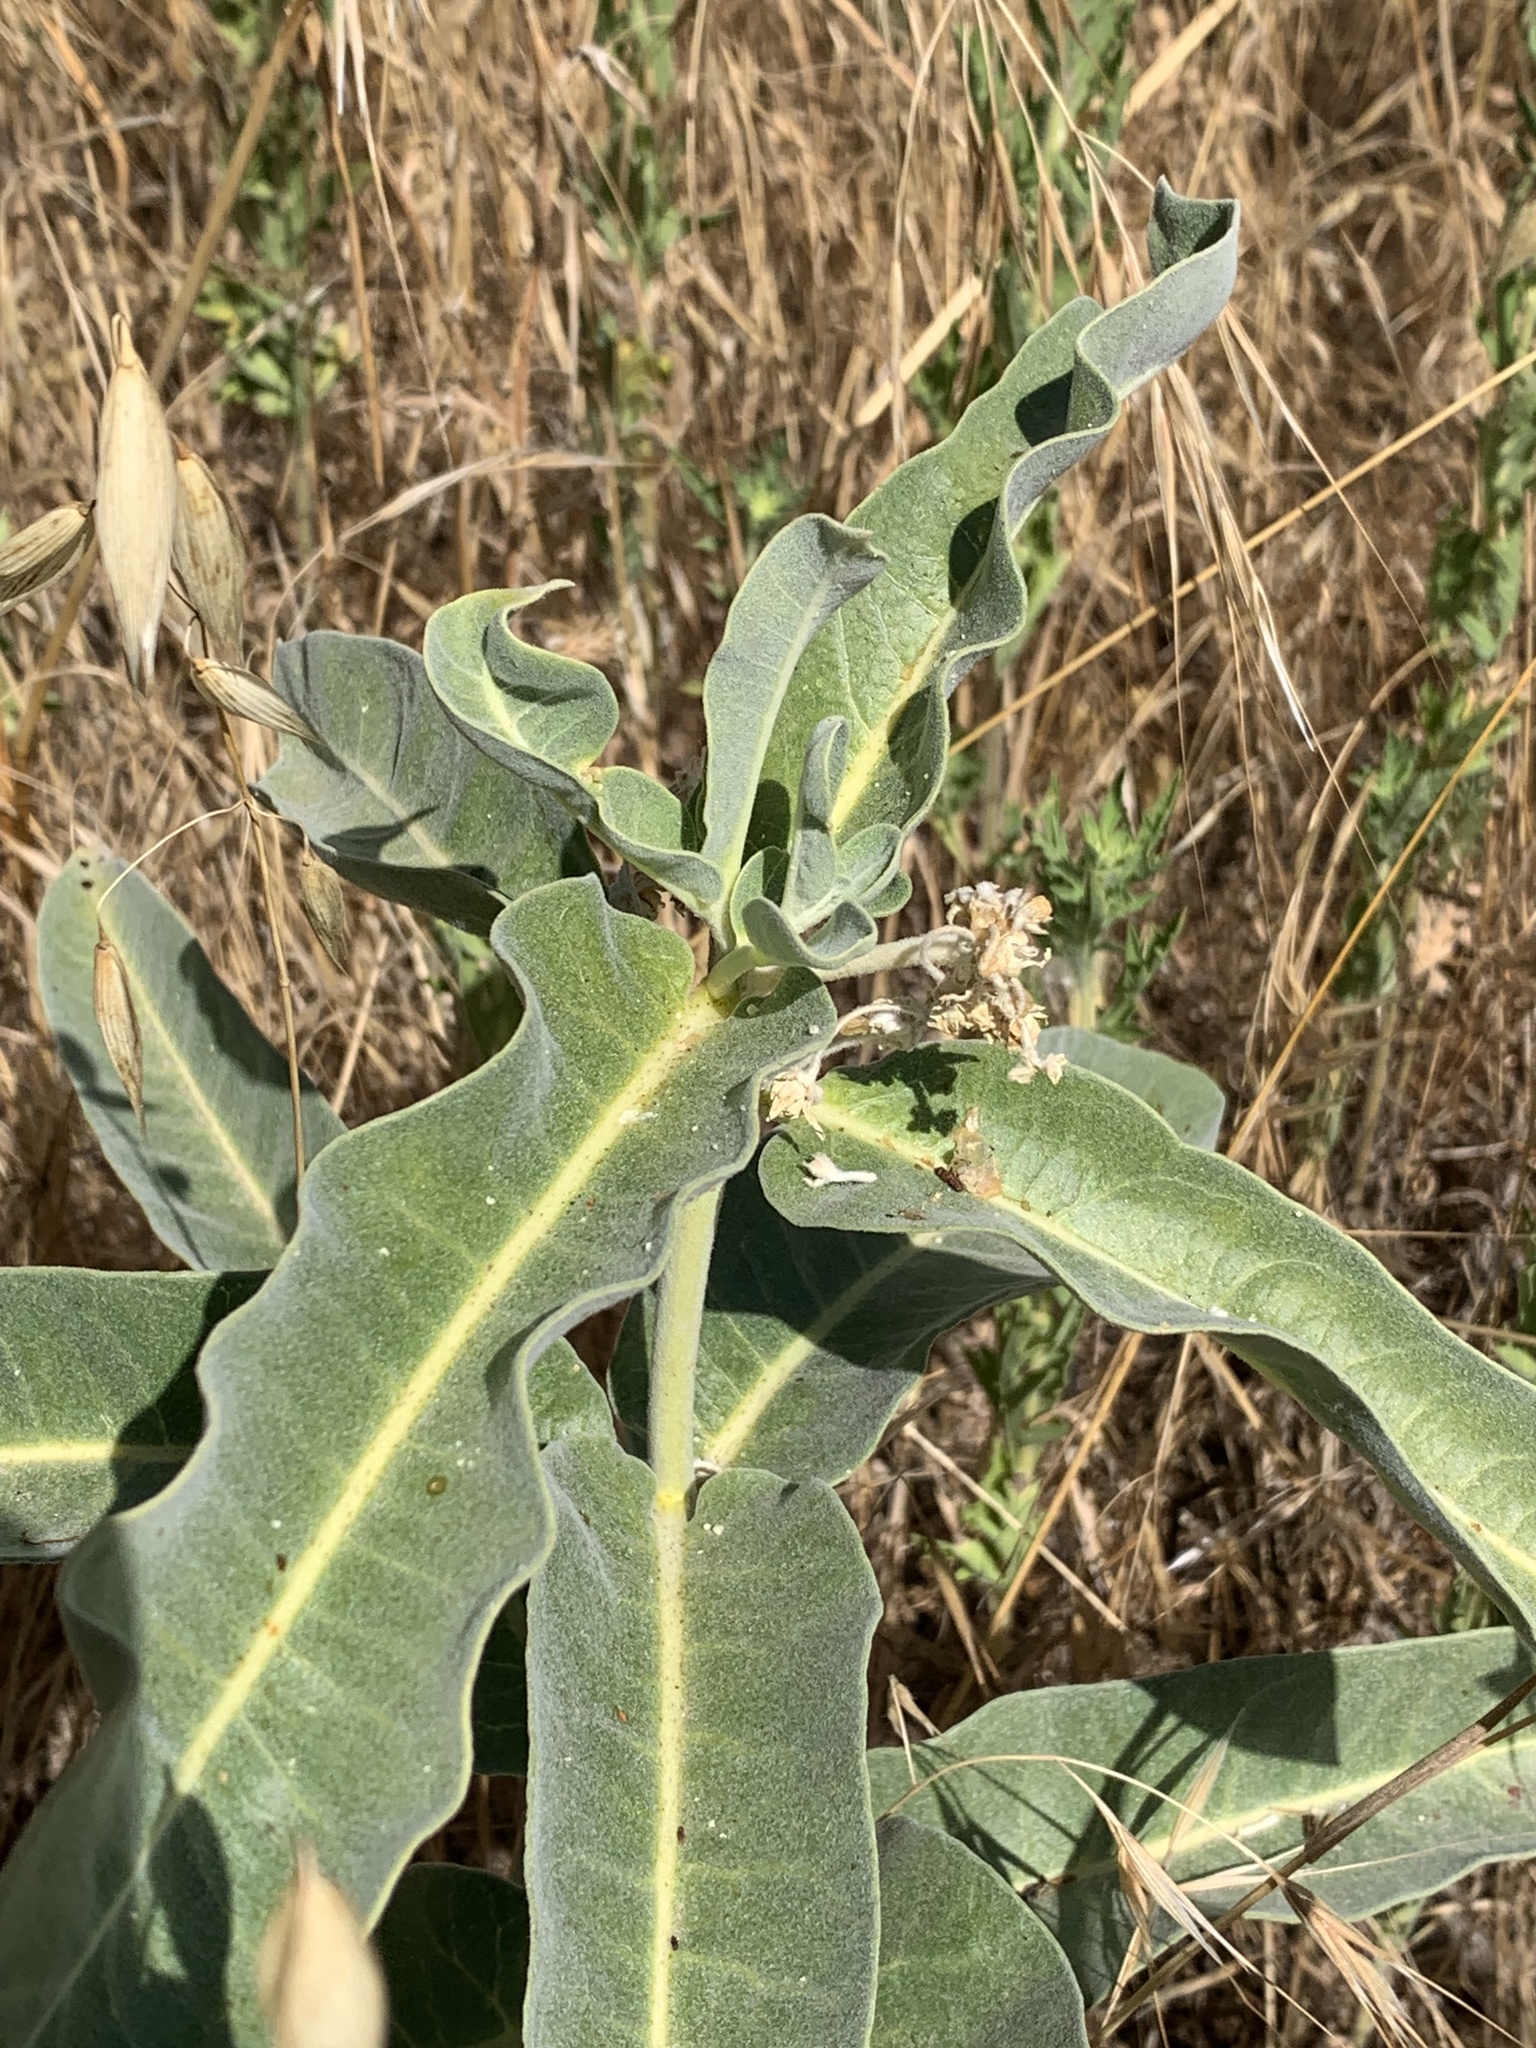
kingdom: Plantae
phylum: Tracheophyta
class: Magnoliopsida
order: Gentianales
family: Apocynaceae
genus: Asclepias
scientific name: Asclepias eriocarpa
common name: Indian milkweed
